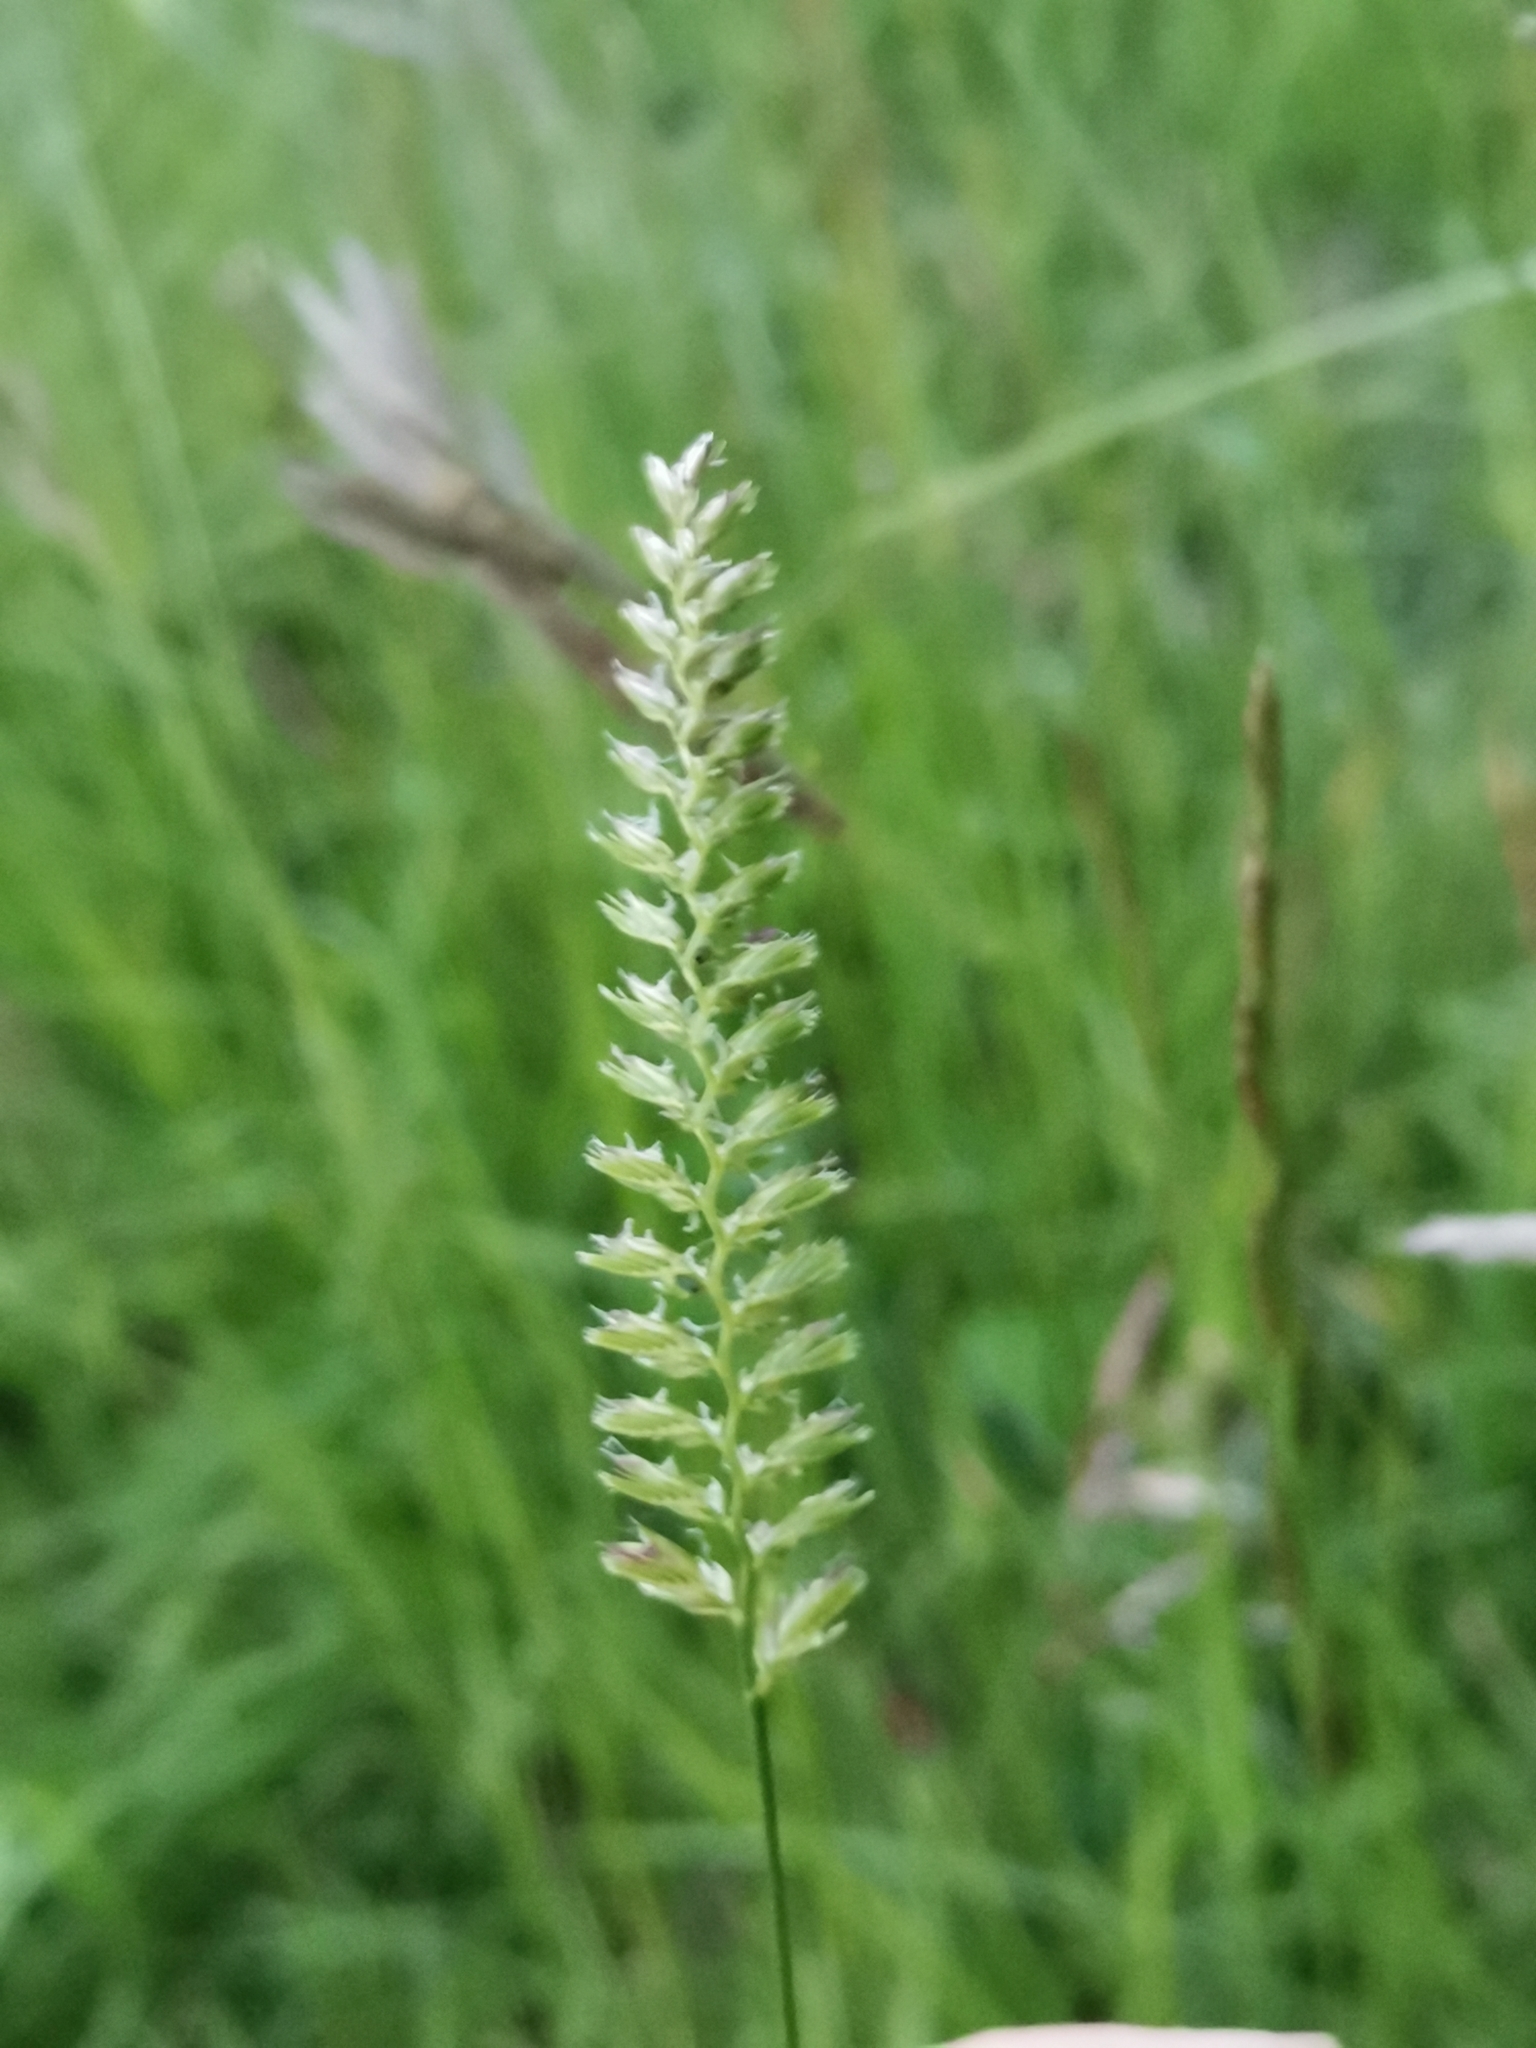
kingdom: Plantae
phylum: Tracheophyta
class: Liliopsida
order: Poales
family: Poaceae
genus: Cynosurus
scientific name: Cynosurus cristatus
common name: Crested dog's-tail
